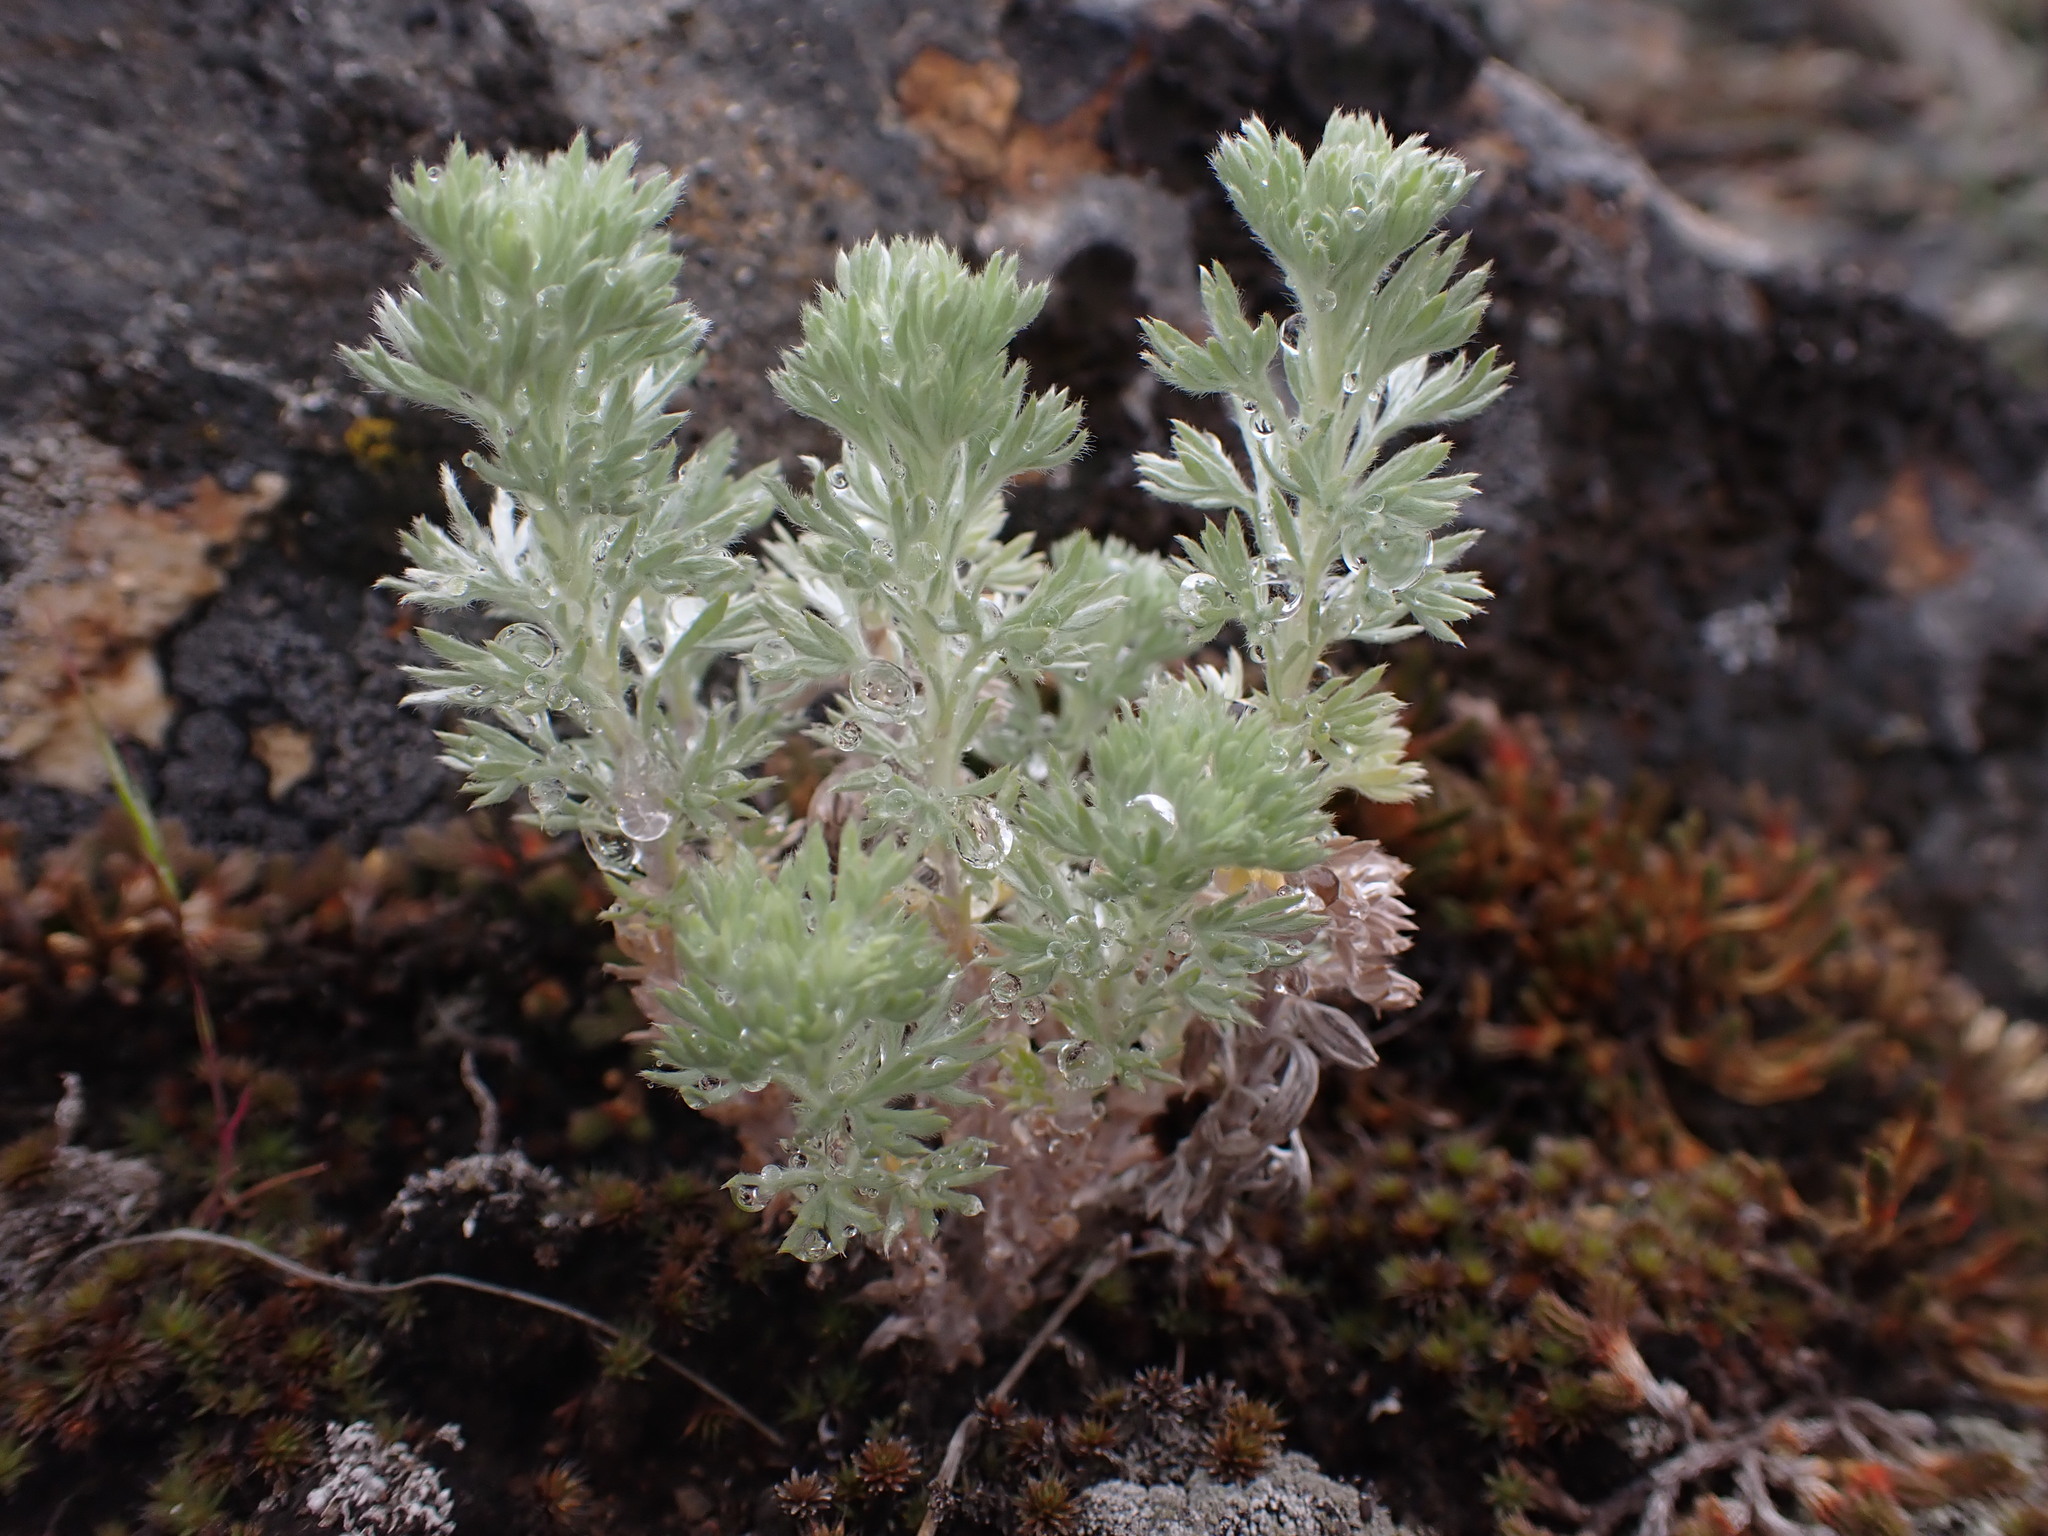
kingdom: Plantae
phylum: Tracheophyta
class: Magnoliopsida
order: Asterales
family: Asteraceae
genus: Artemisia
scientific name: Artemisia frigida
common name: Prairie sagewort
